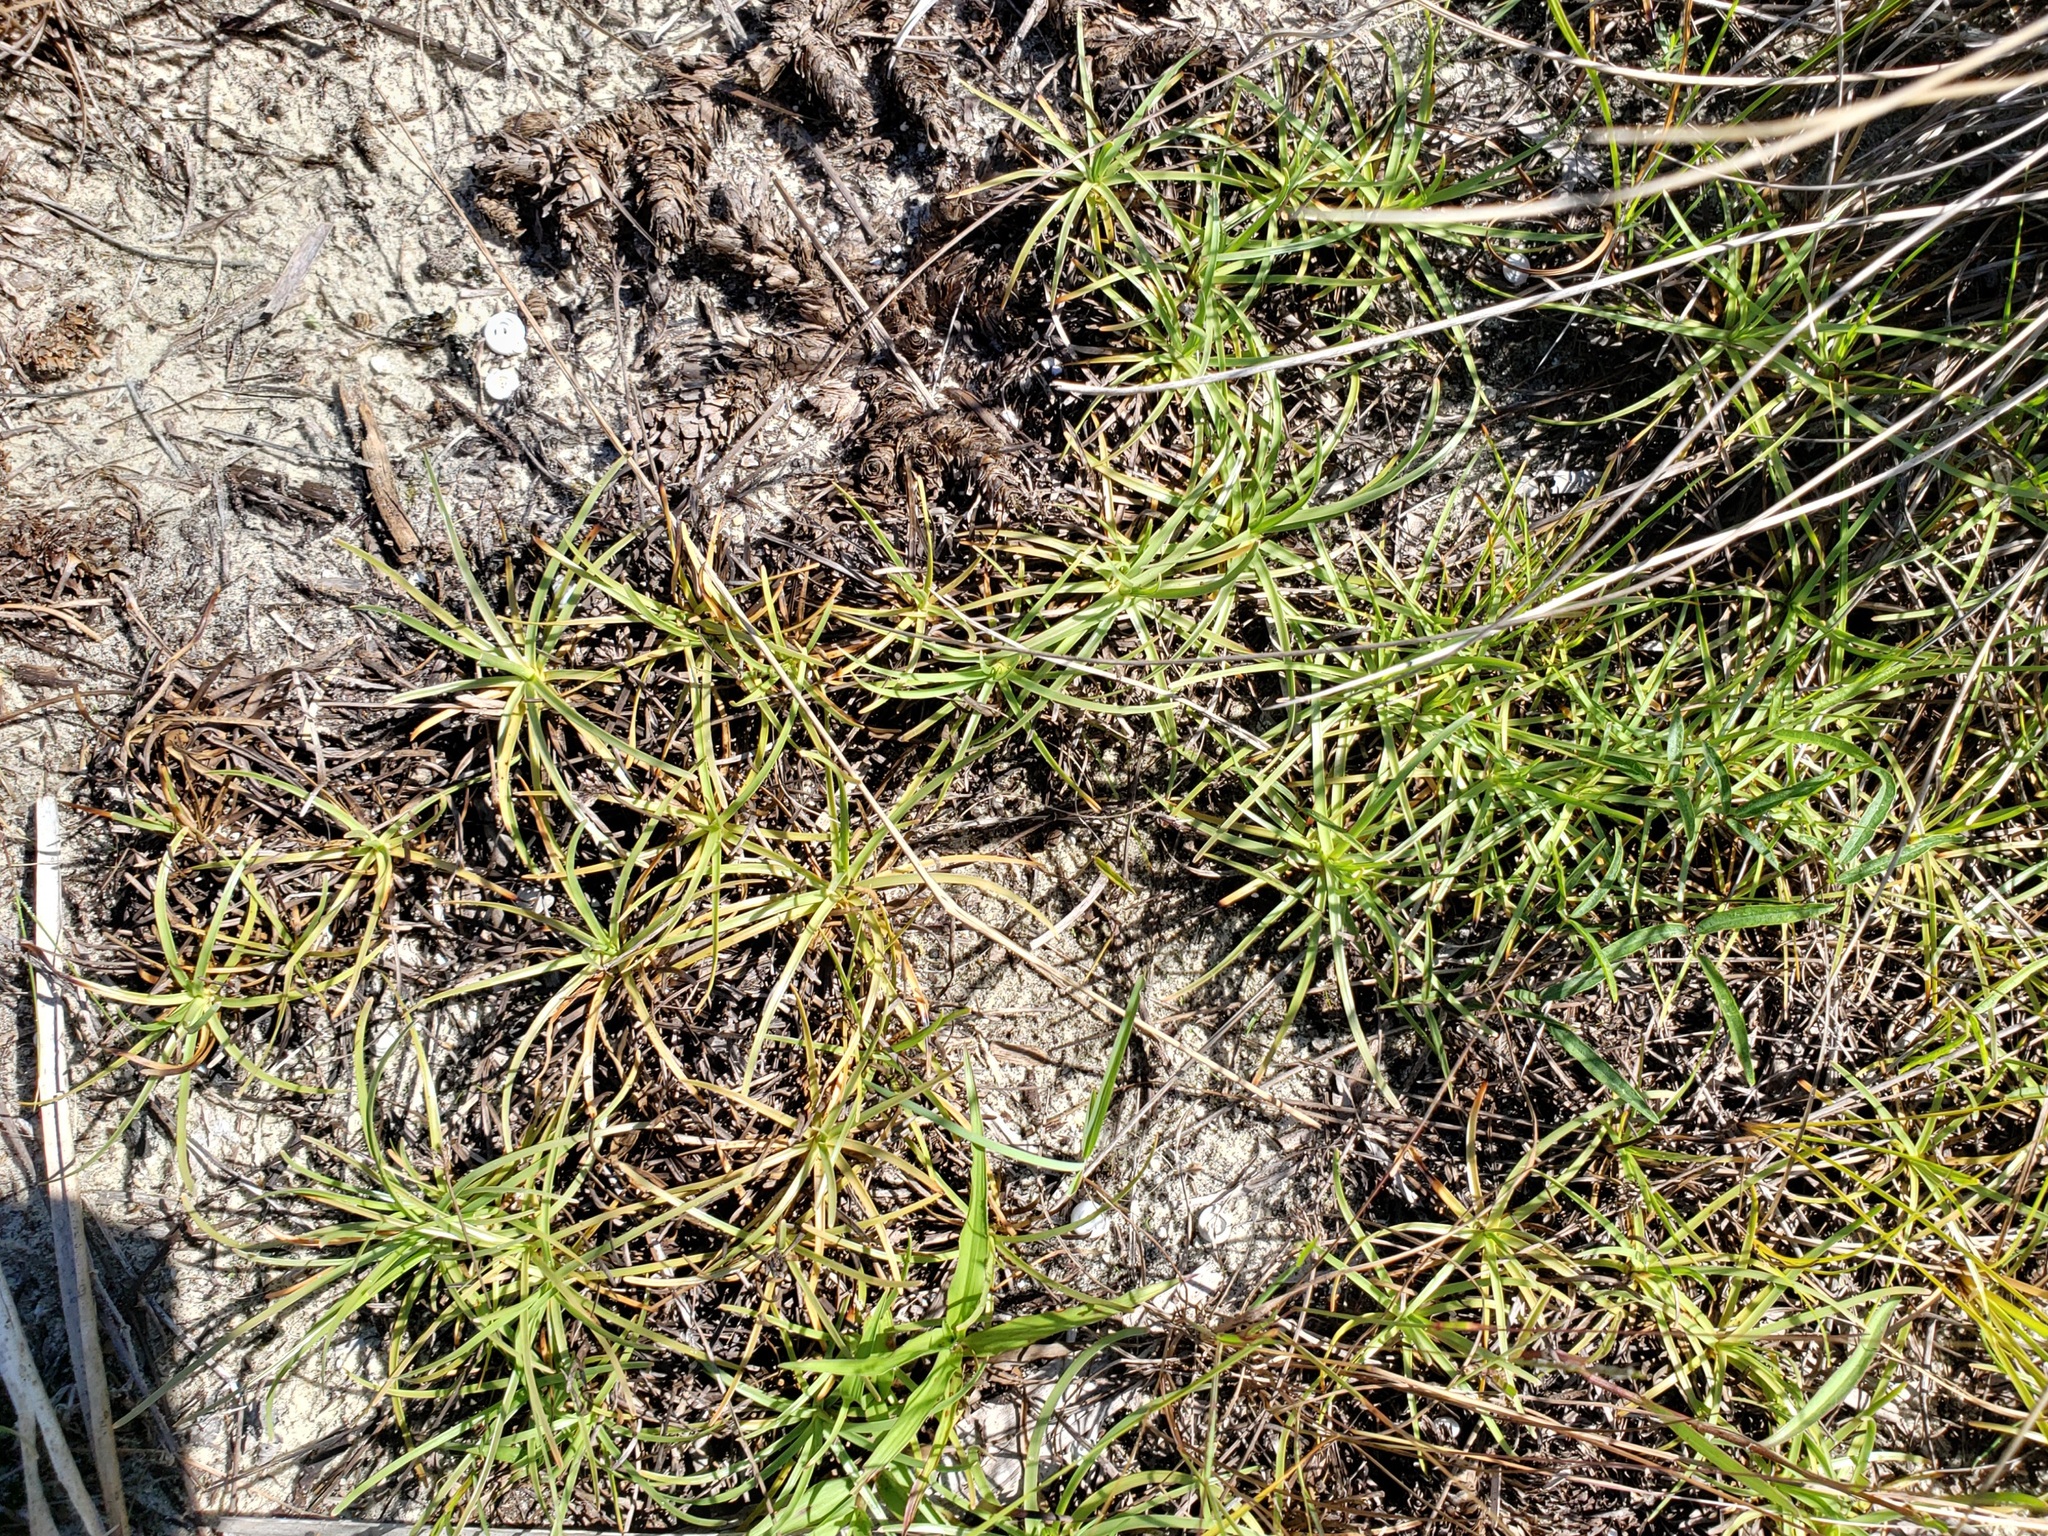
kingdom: Plantae
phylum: Tracheophyta
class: Liliopsida
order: Poales
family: Cyperaceae
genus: Fimbristylis
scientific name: Fimbristylis cymosa
